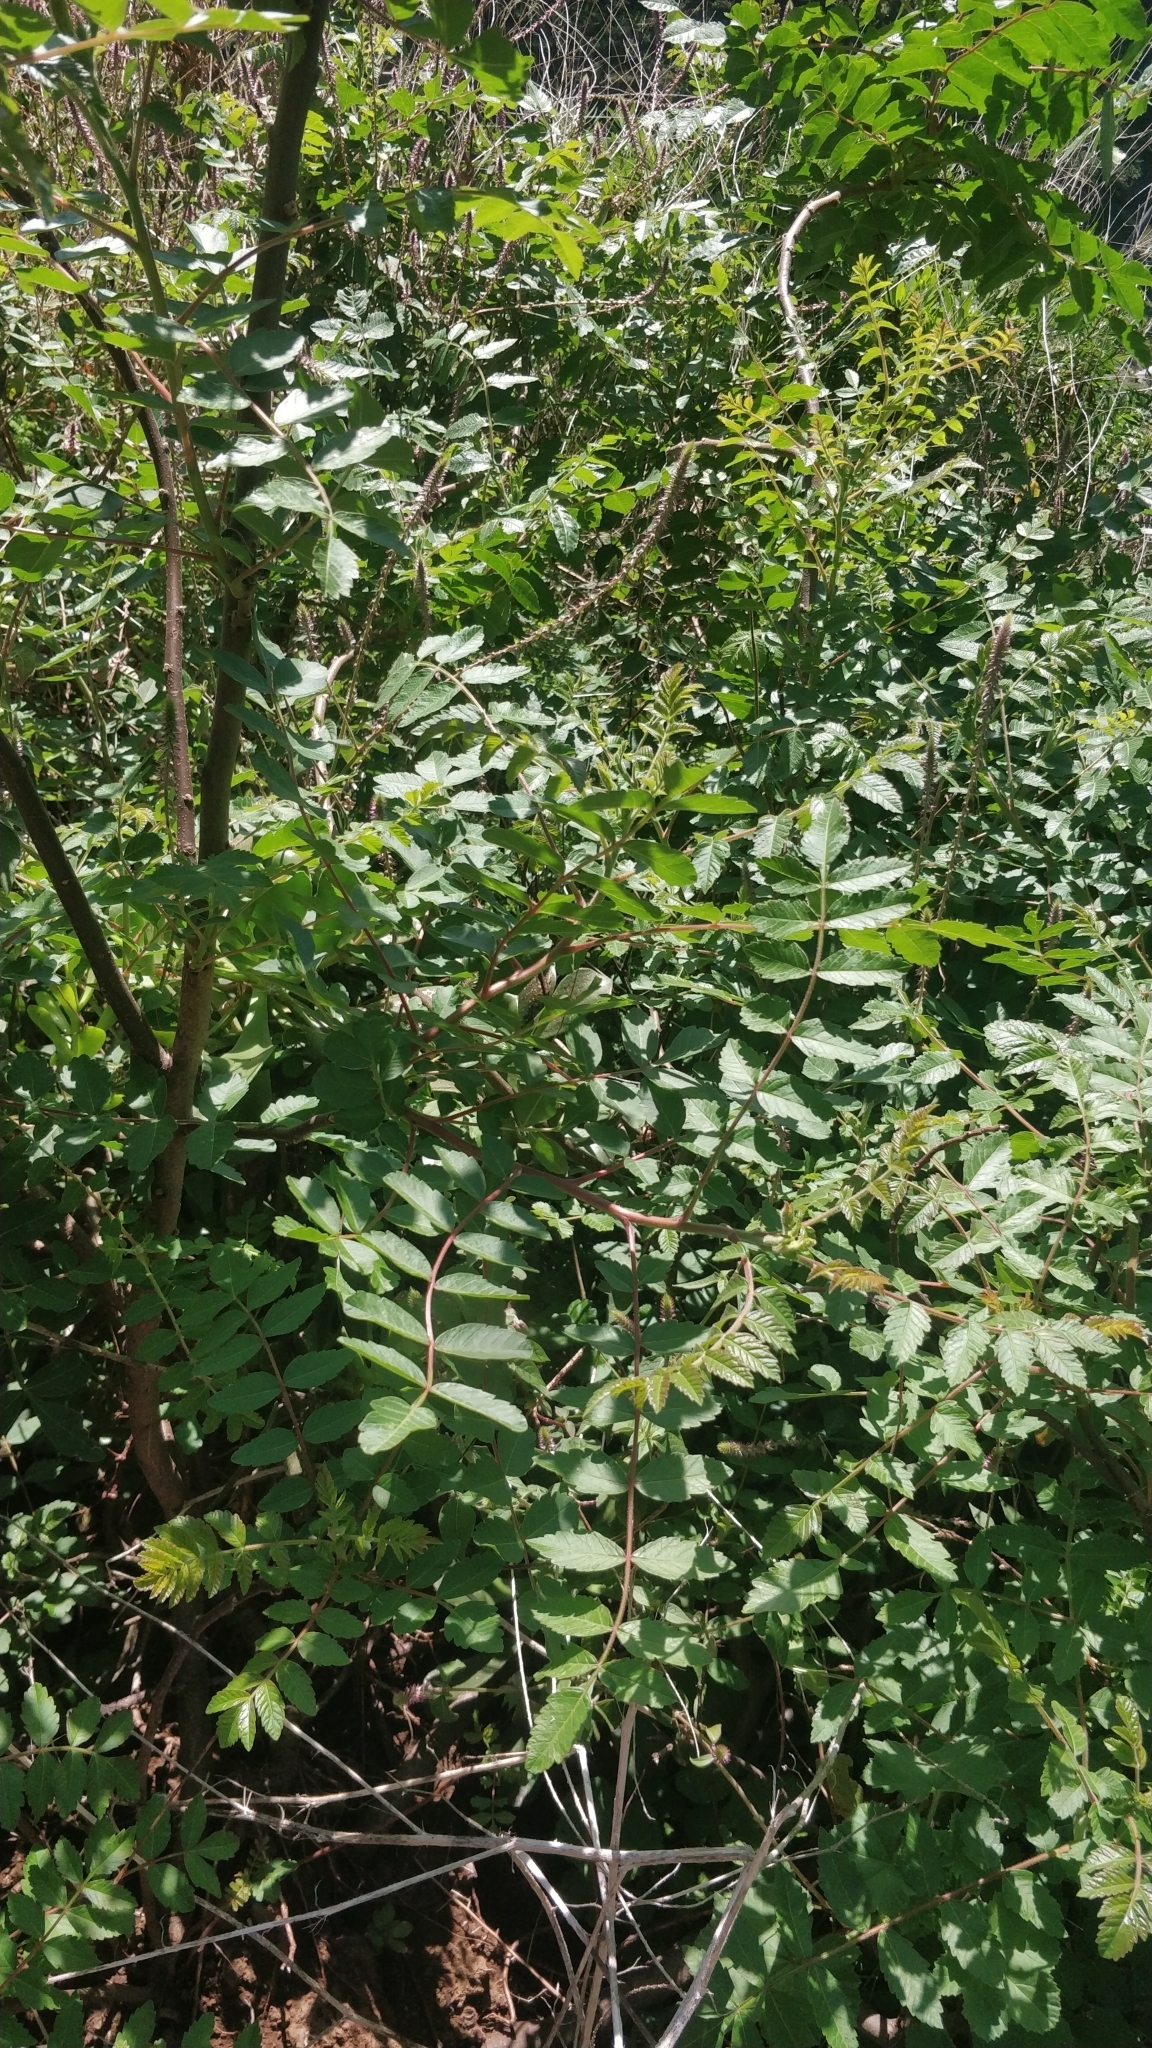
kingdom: Plantae
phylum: Tracheophyta
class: Magnoliopsida
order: Sapindales
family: Anacardiaceae
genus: Rhus
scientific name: Rhus coriaria
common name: Tanner's sumach
